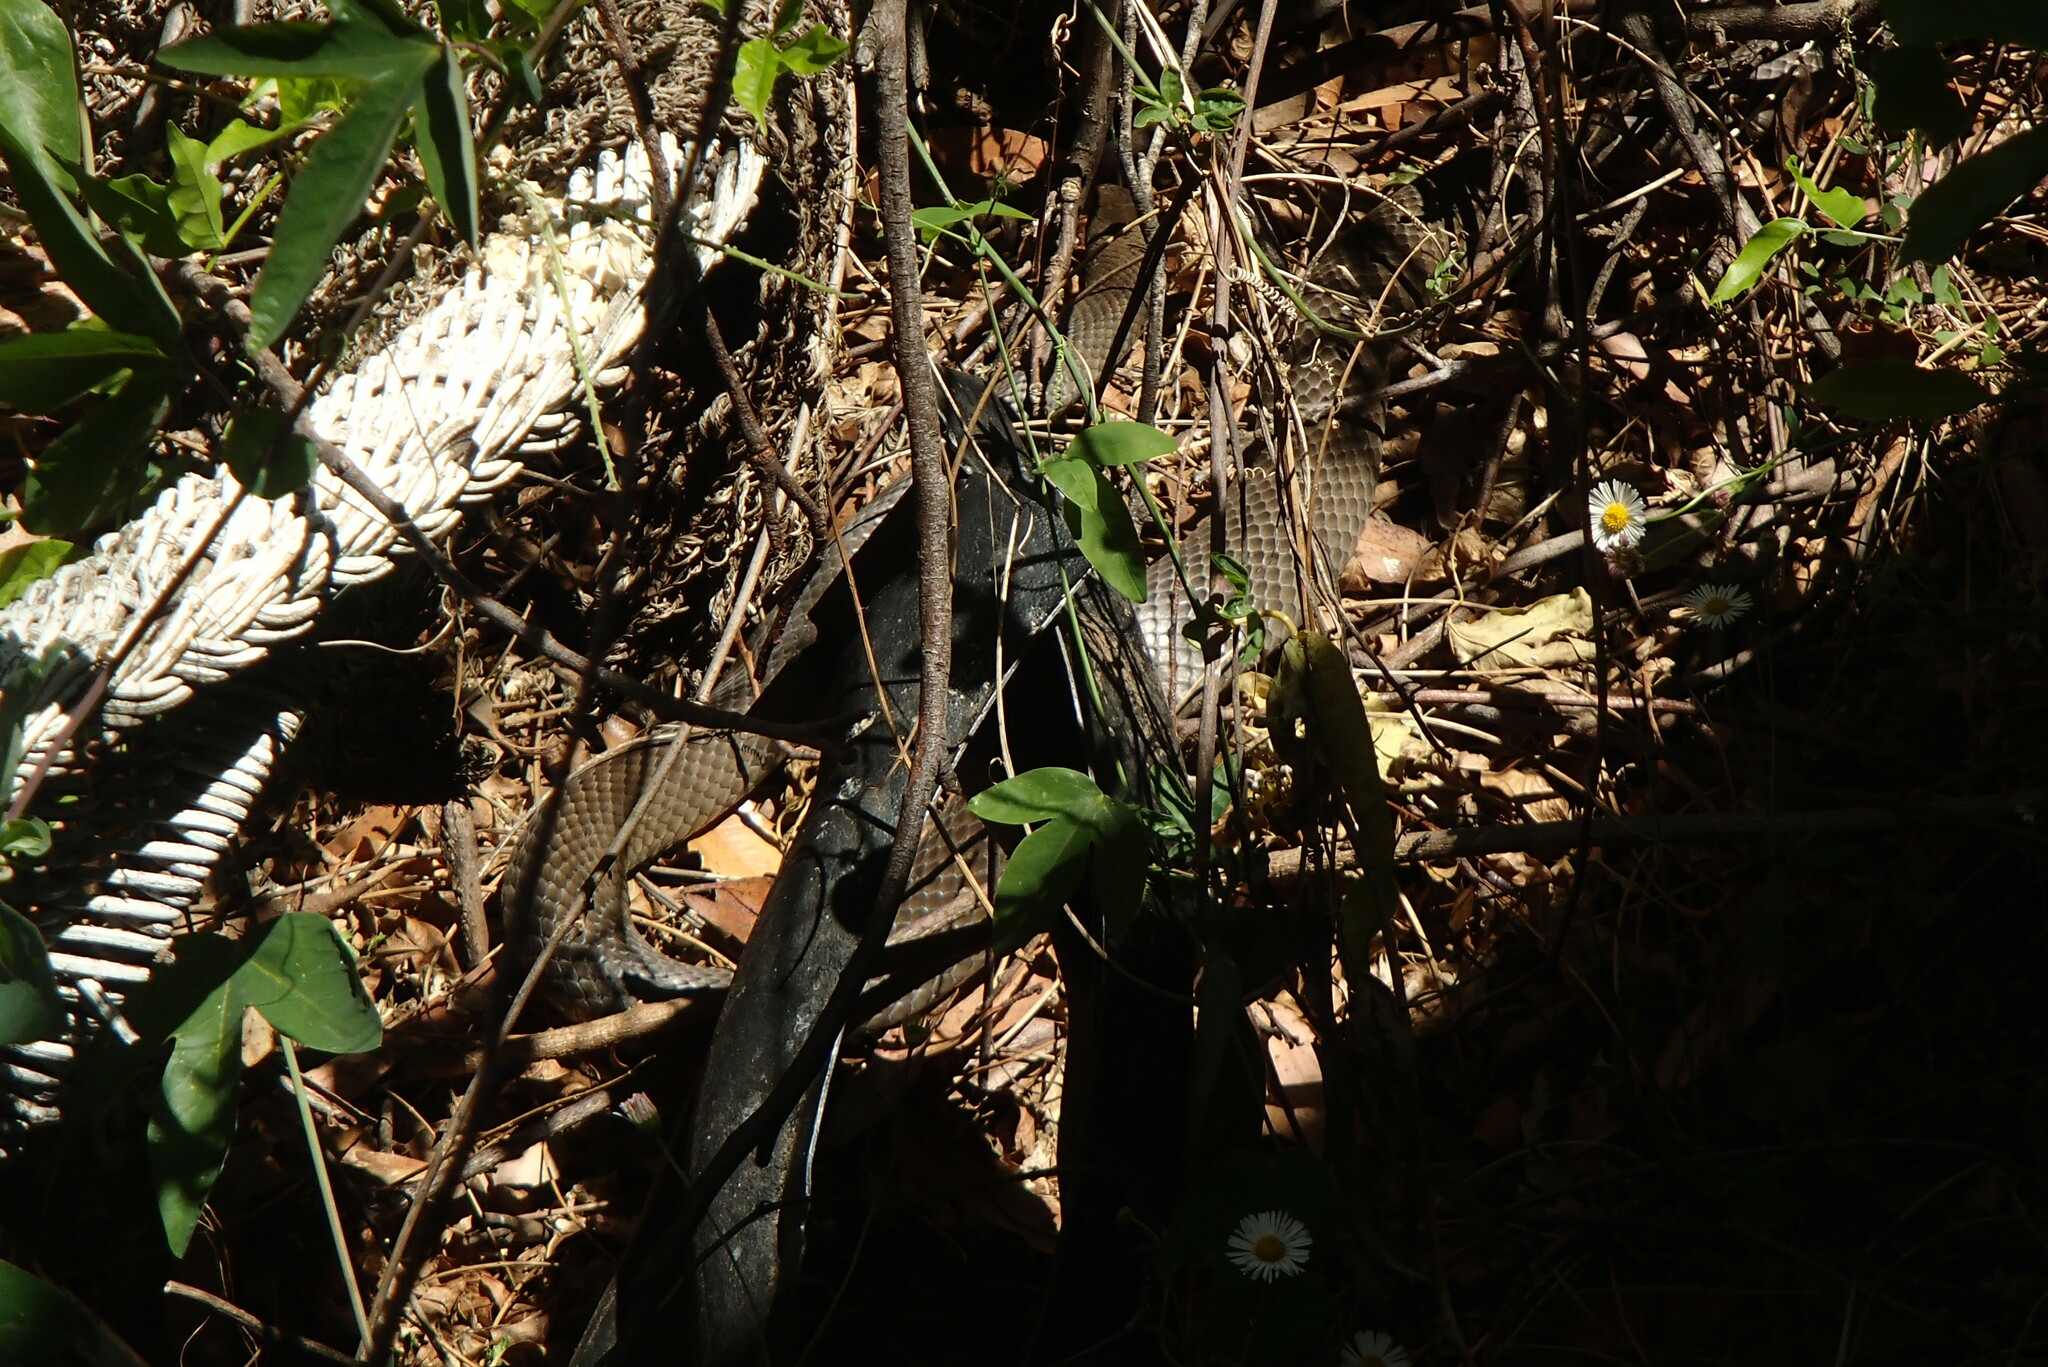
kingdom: Animalia
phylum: Chordata
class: Squamata
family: Elapidae
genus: Pseudonaja
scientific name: Pseudonaja textilis
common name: Eastern brown snake
